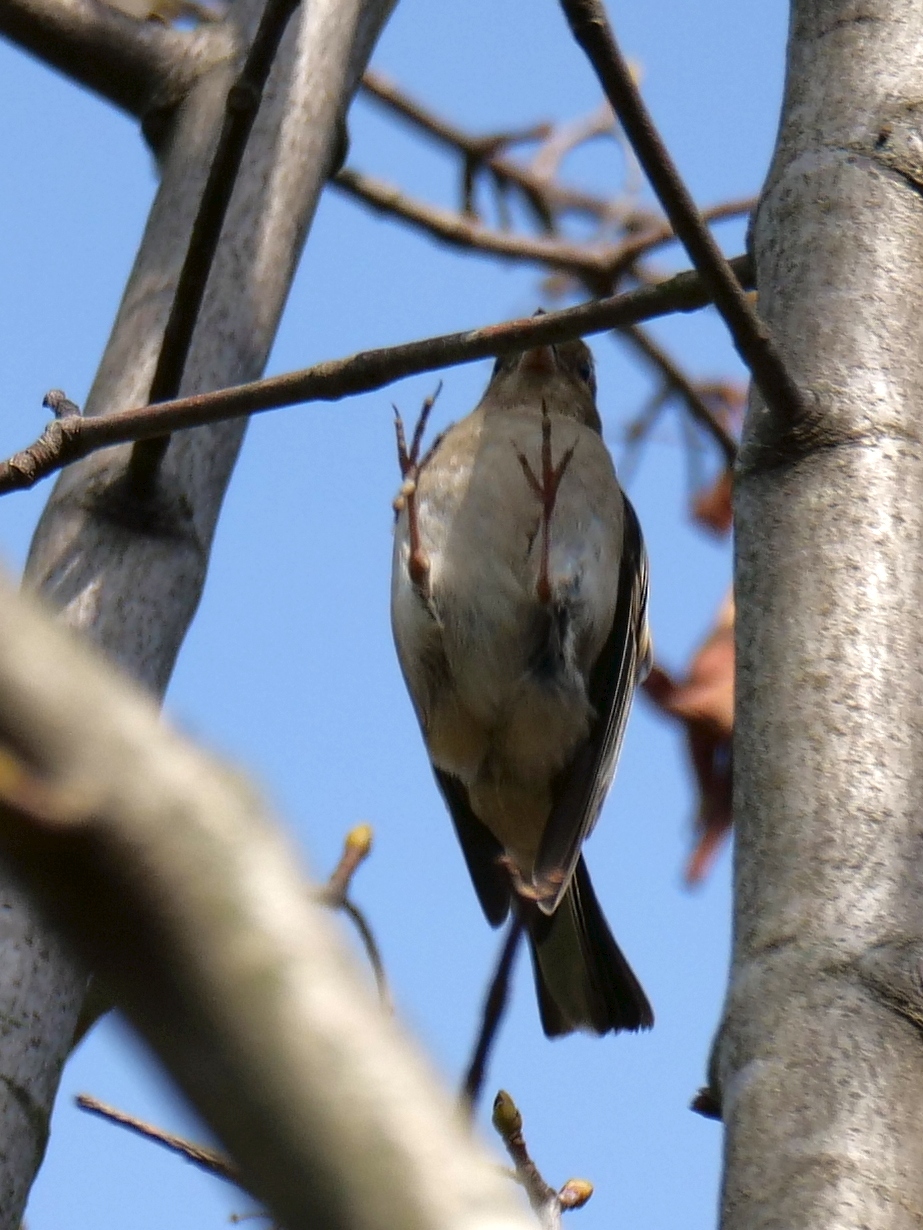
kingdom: Animalia
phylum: Chordata
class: Aves
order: Passeriformes
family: Fringillidae
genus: Fringilla
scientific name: Fringilla coelebs
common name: Common chaffinch
